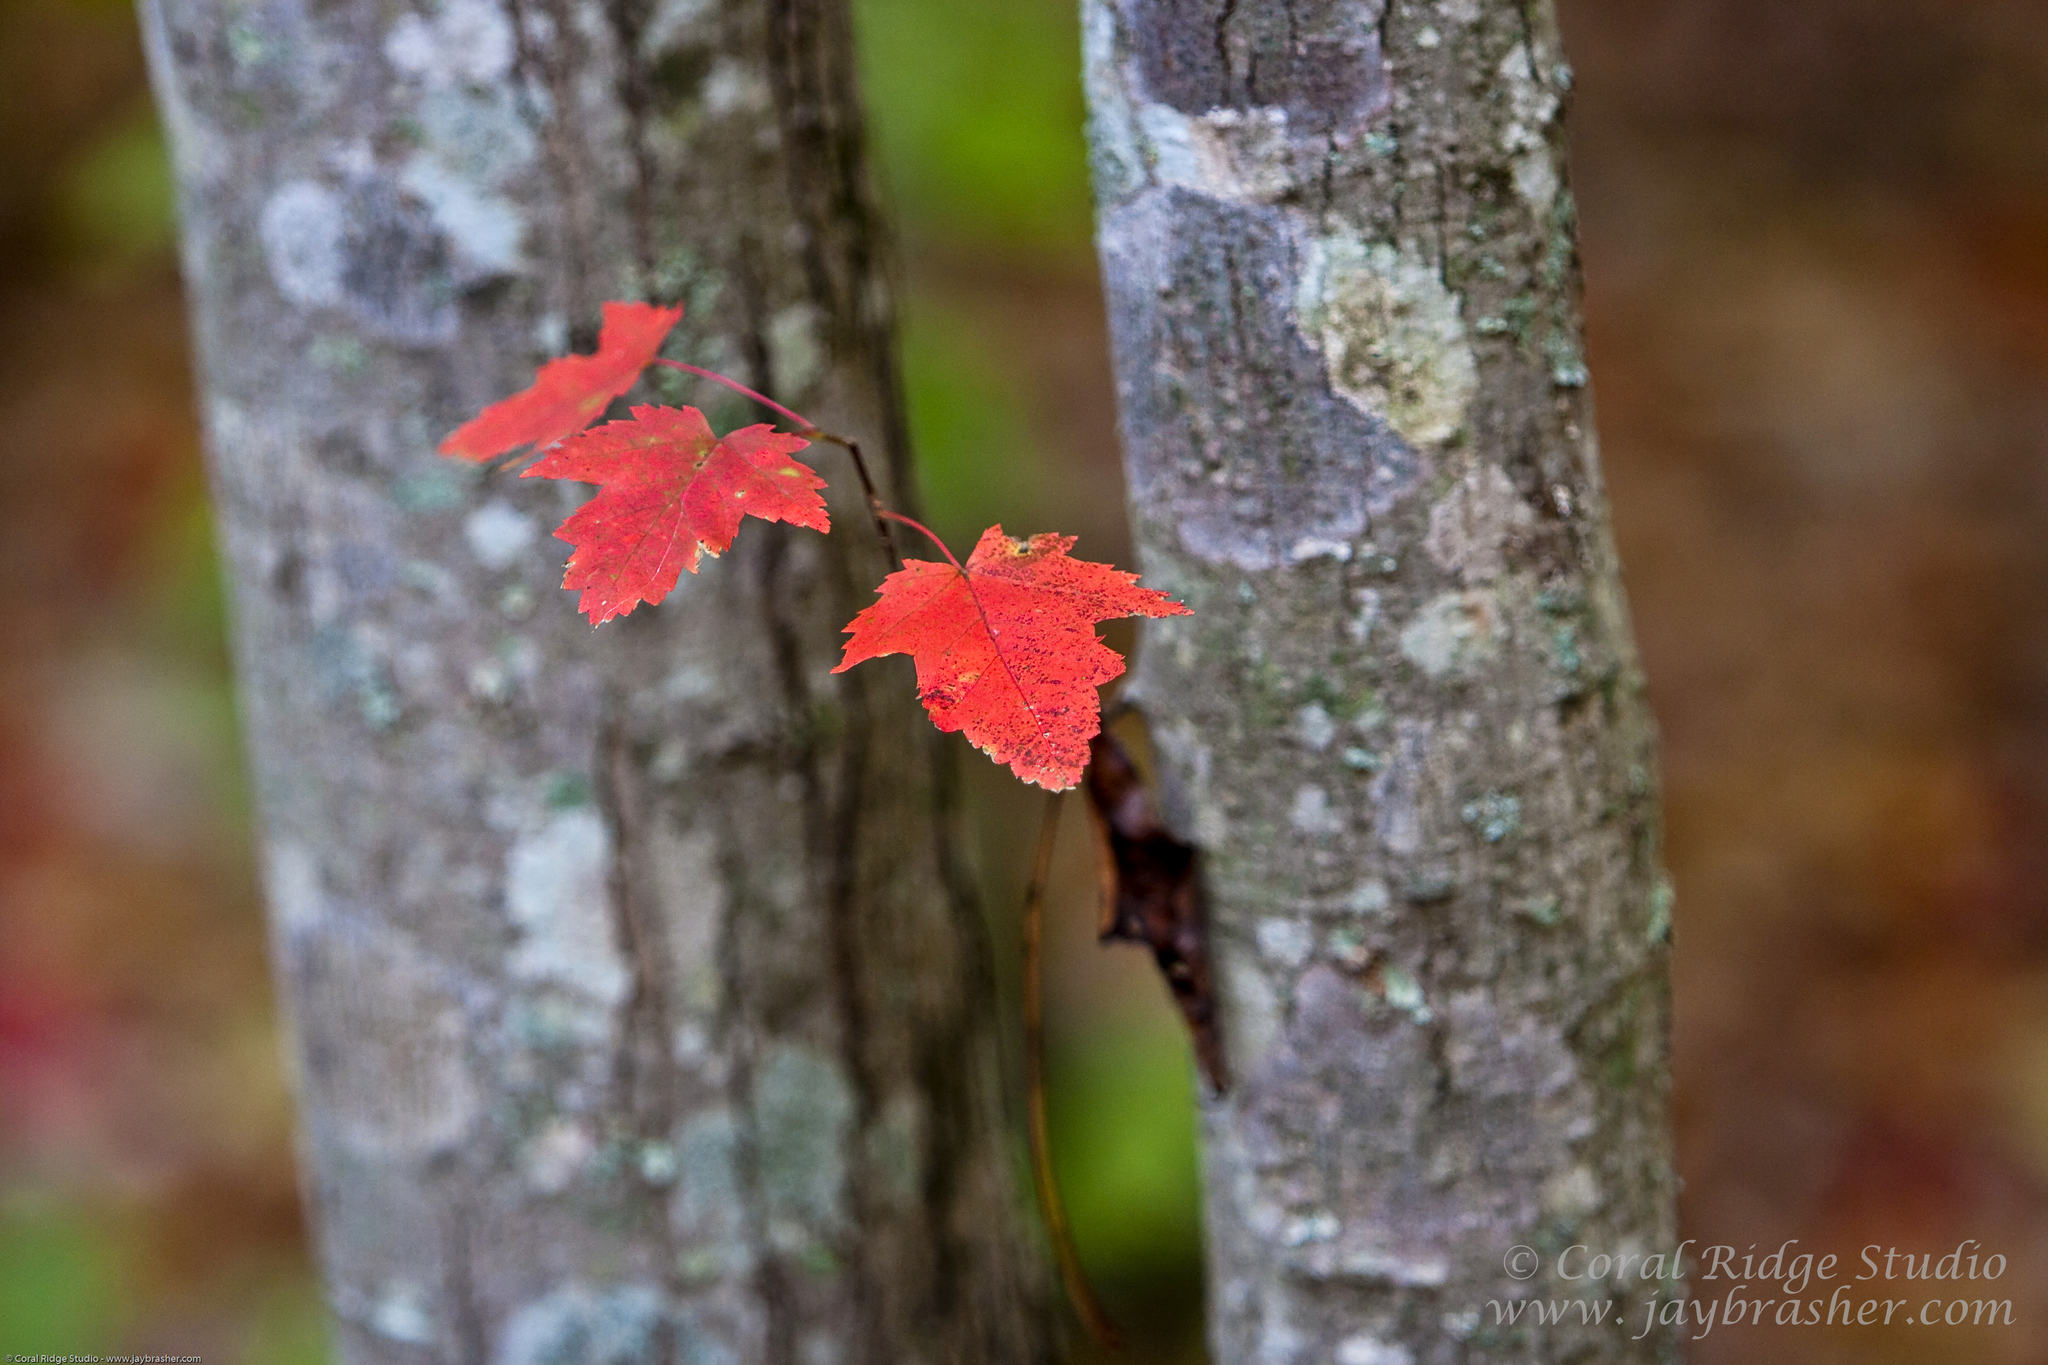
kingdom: Plantae
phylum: Tracheophyta
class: Magnoliopsida
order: Sapindales
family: Sapindaceae
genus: Acer
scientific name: Acer rubrum
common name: Red maple
